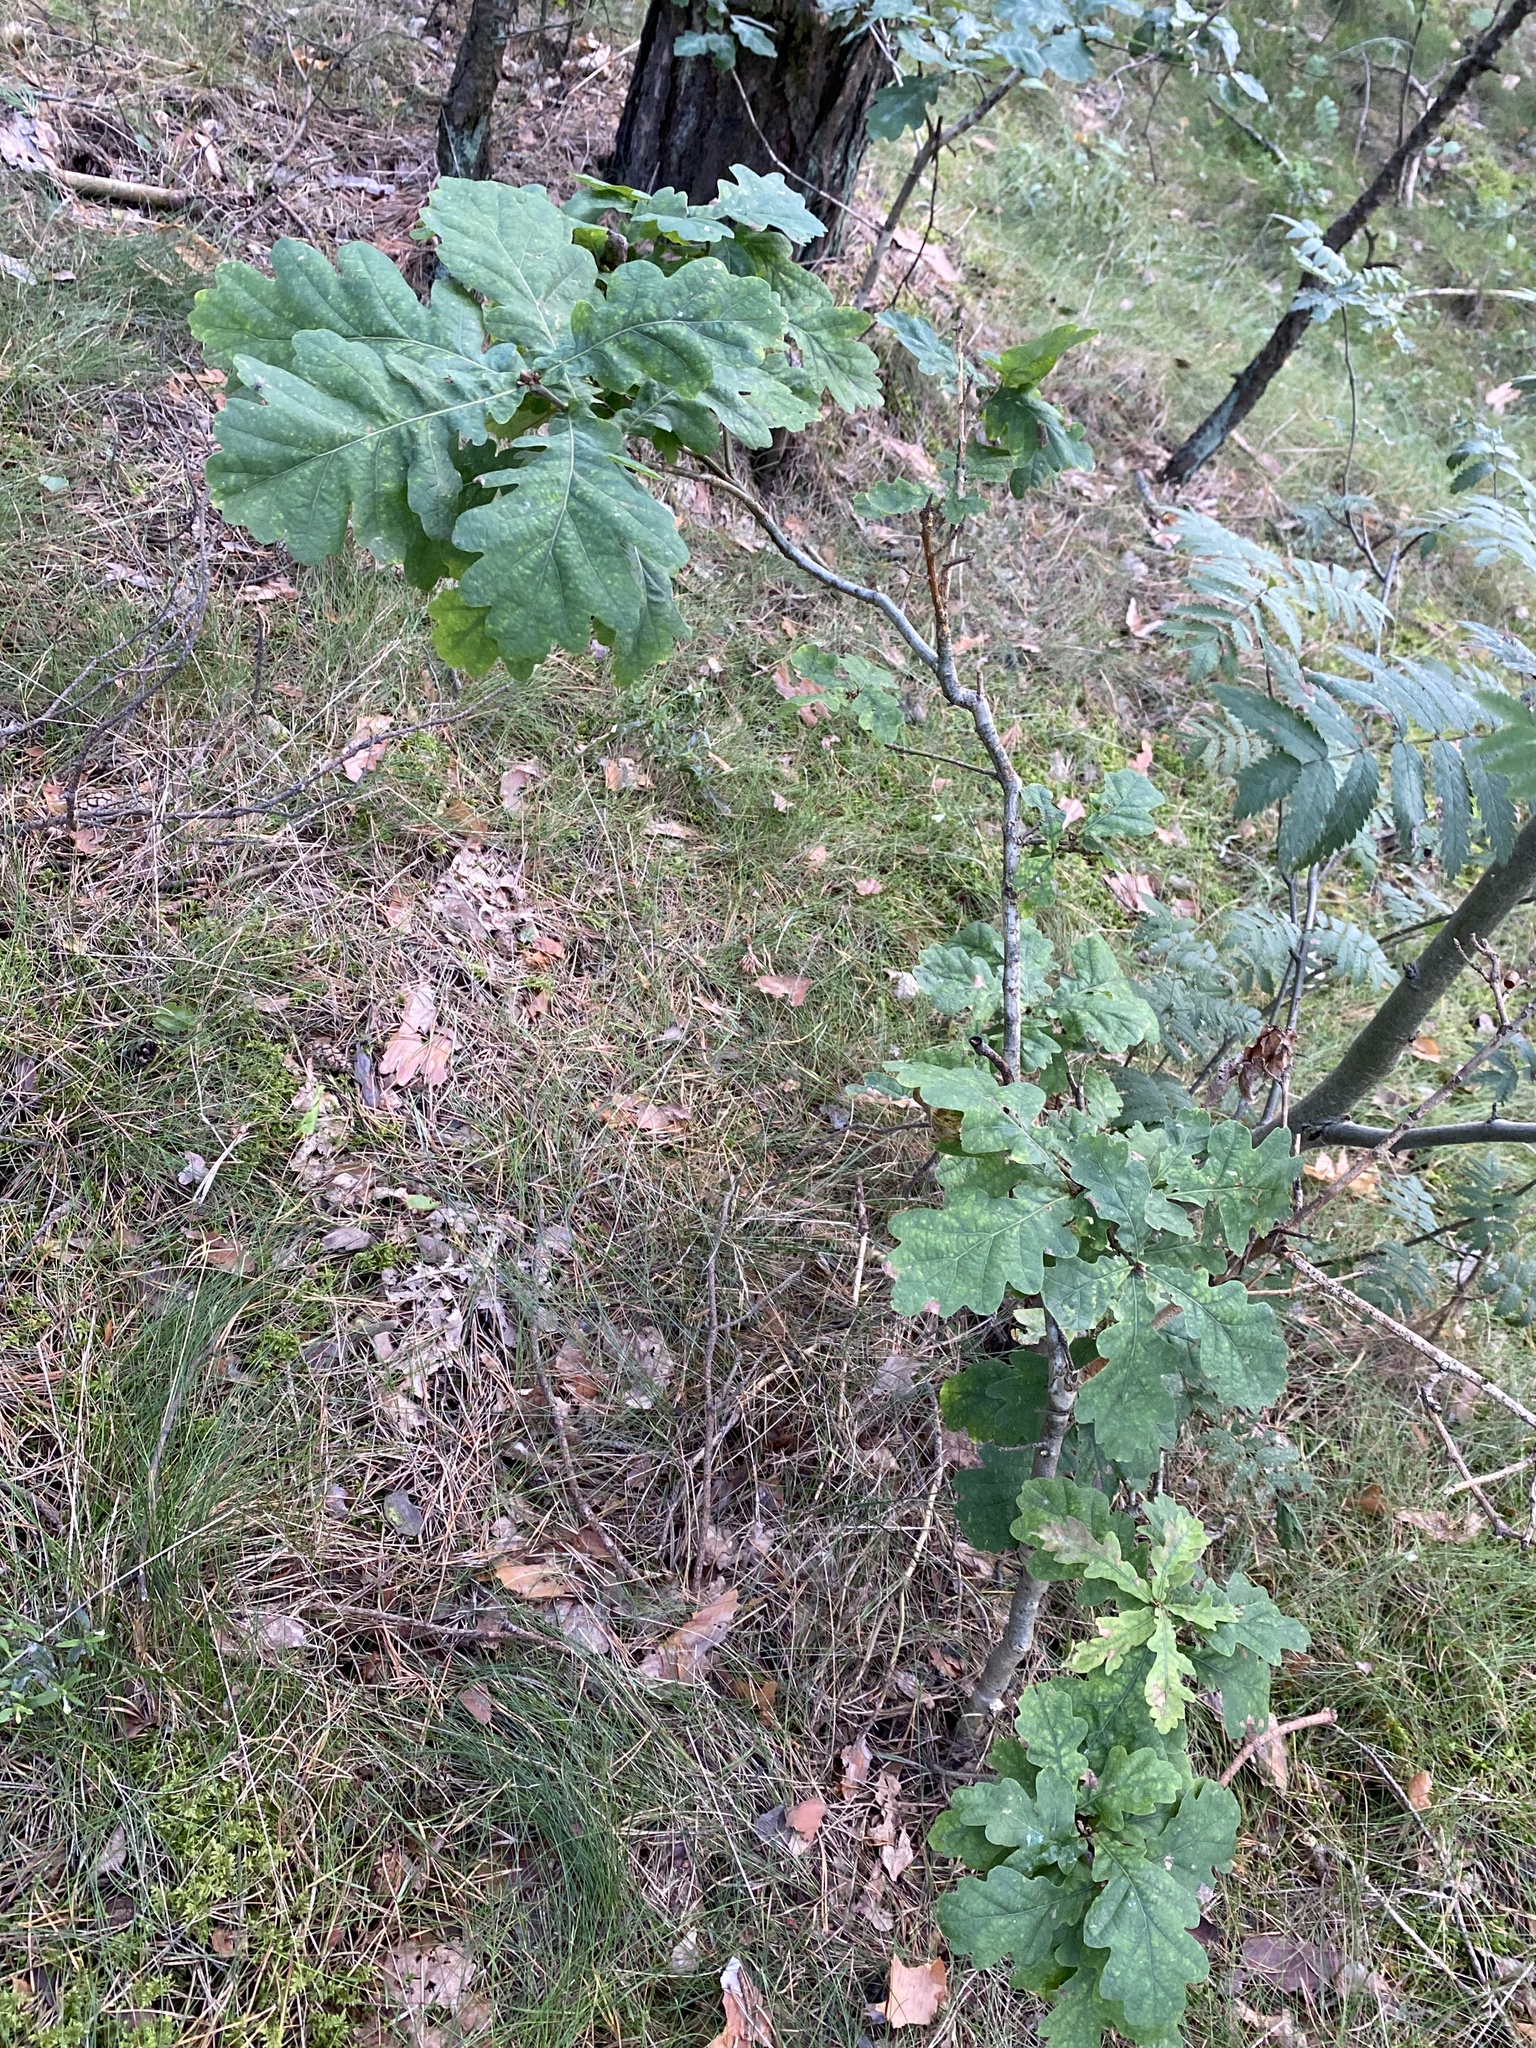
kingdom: Plantae
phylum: Tracheophyta
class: Magnoliopsida
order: Fagales
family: Fagaceae
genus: Quercus
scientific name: Quercus robur
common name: Pedunculate oak
